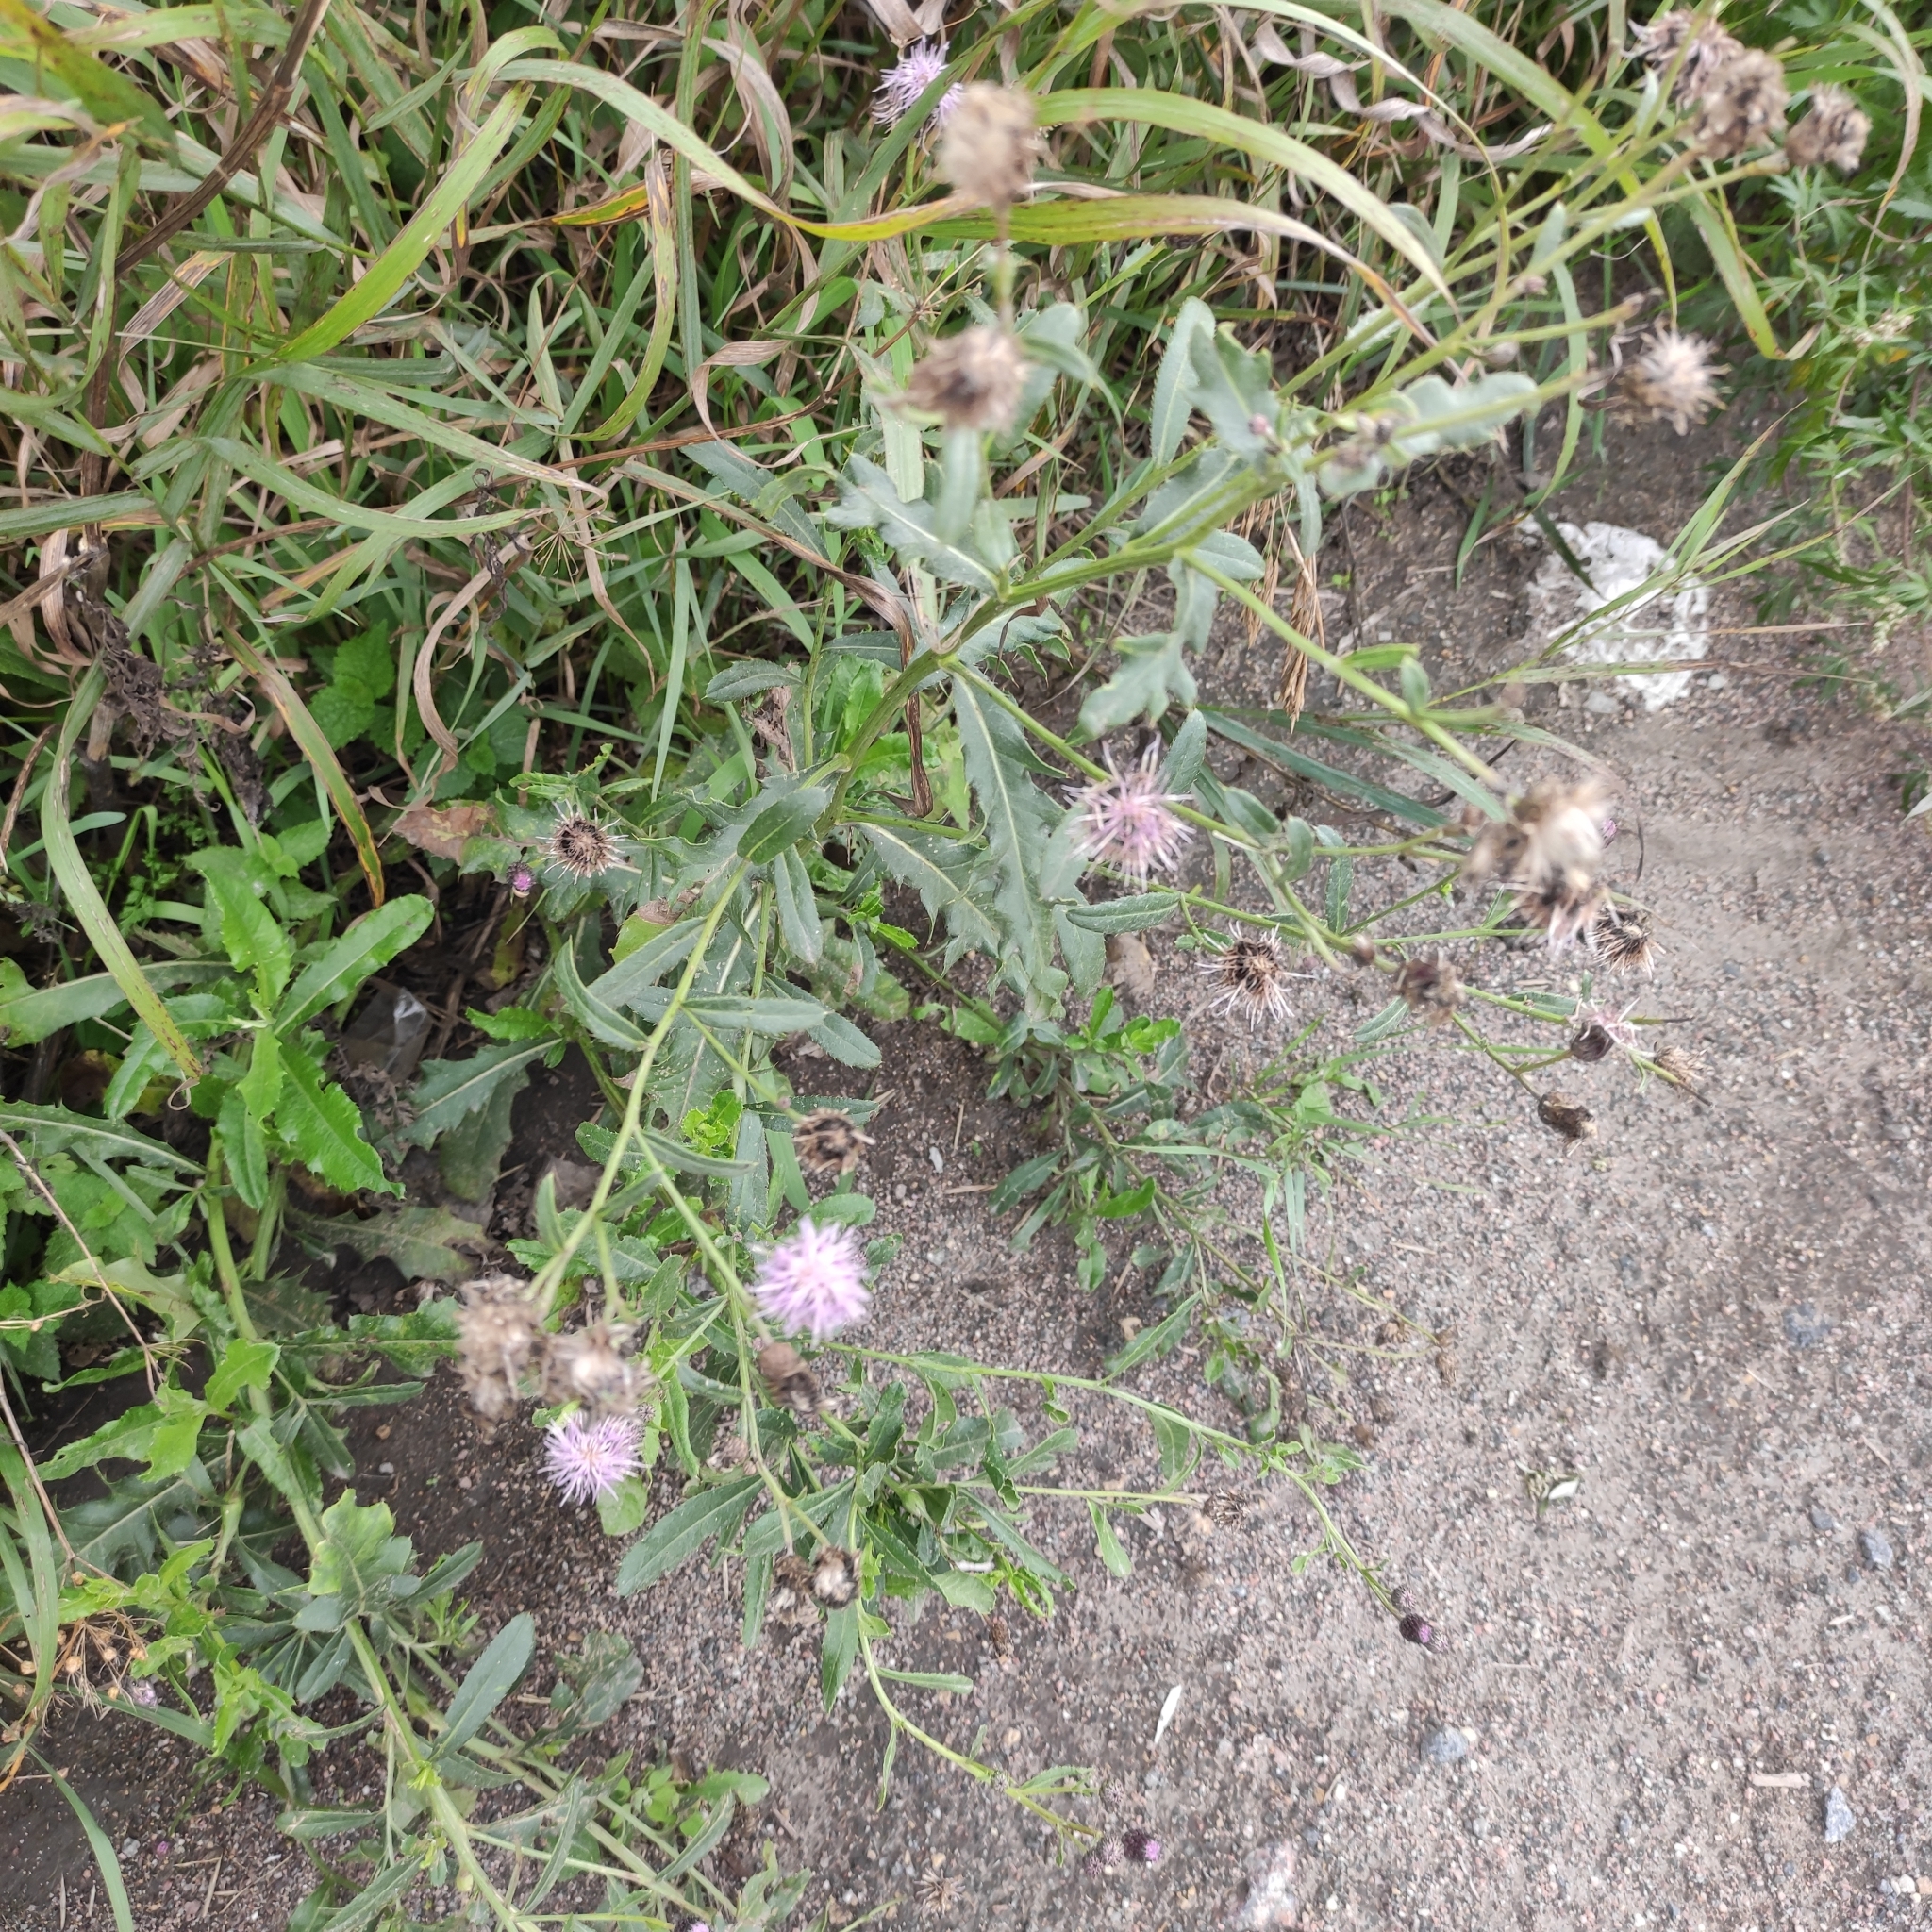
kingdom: Plantae
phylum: Tracheophyta
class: Magnoliopsida
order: Asterales
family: Asteraceae
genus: Cirsium
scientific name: Cirsium arvense
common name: Creeping thistle
